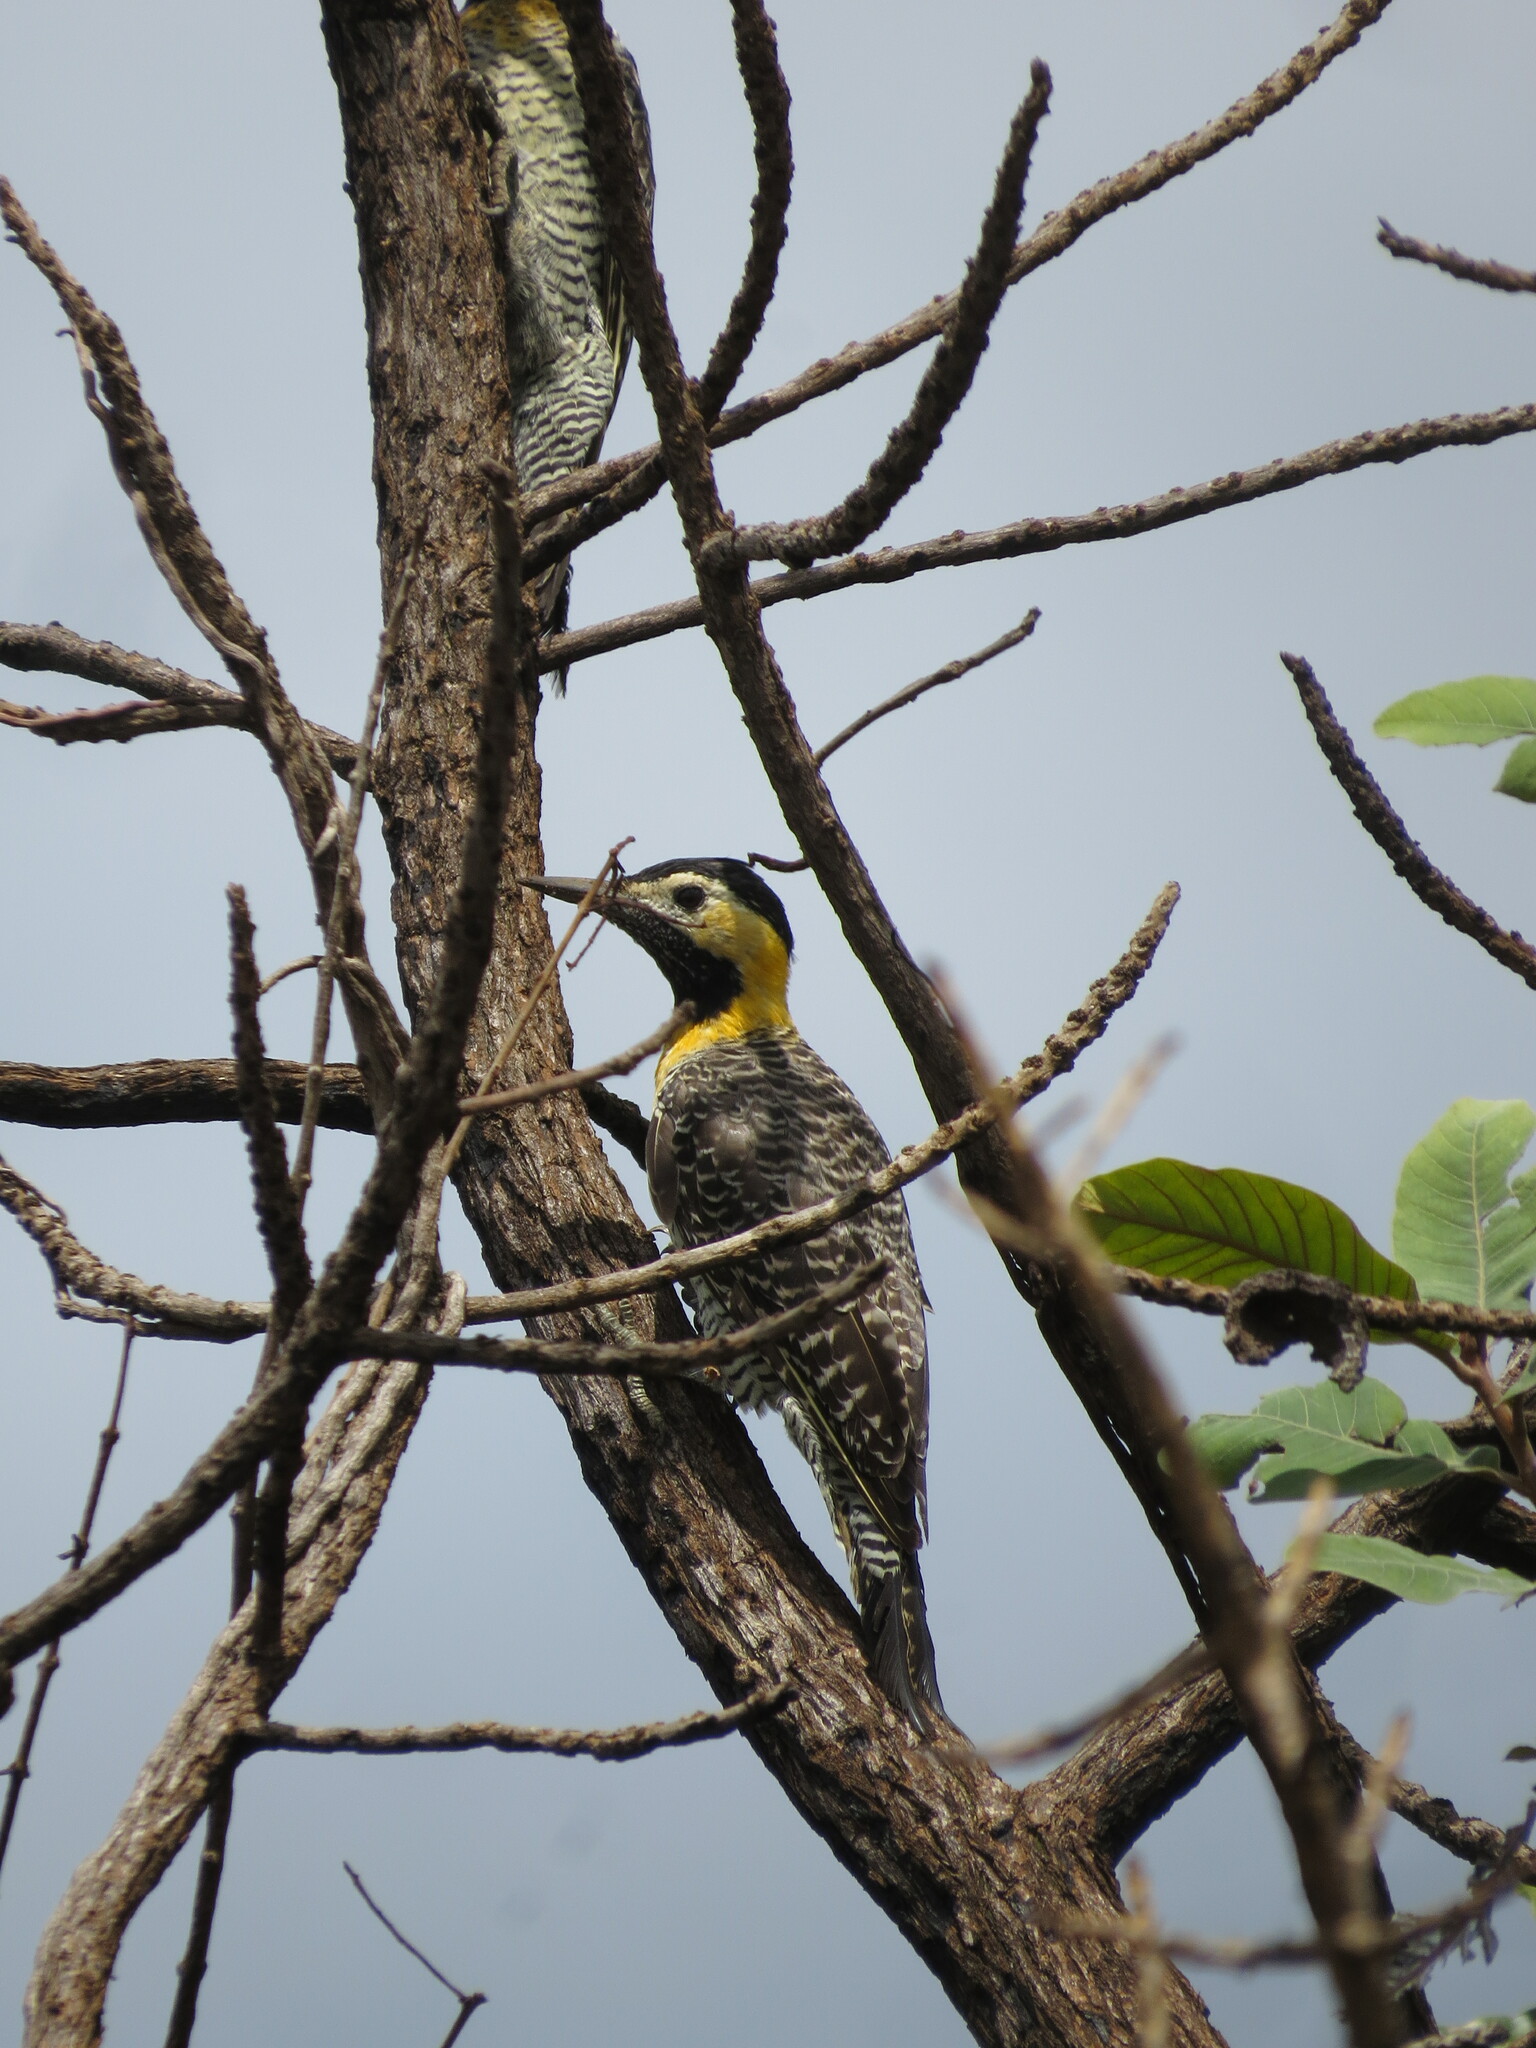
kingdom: Animalia
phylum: Chordata
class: Aves
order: Piciformes
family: Picidae
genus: Colaptes
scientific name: Colaptes campestris
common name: Campo flicker
